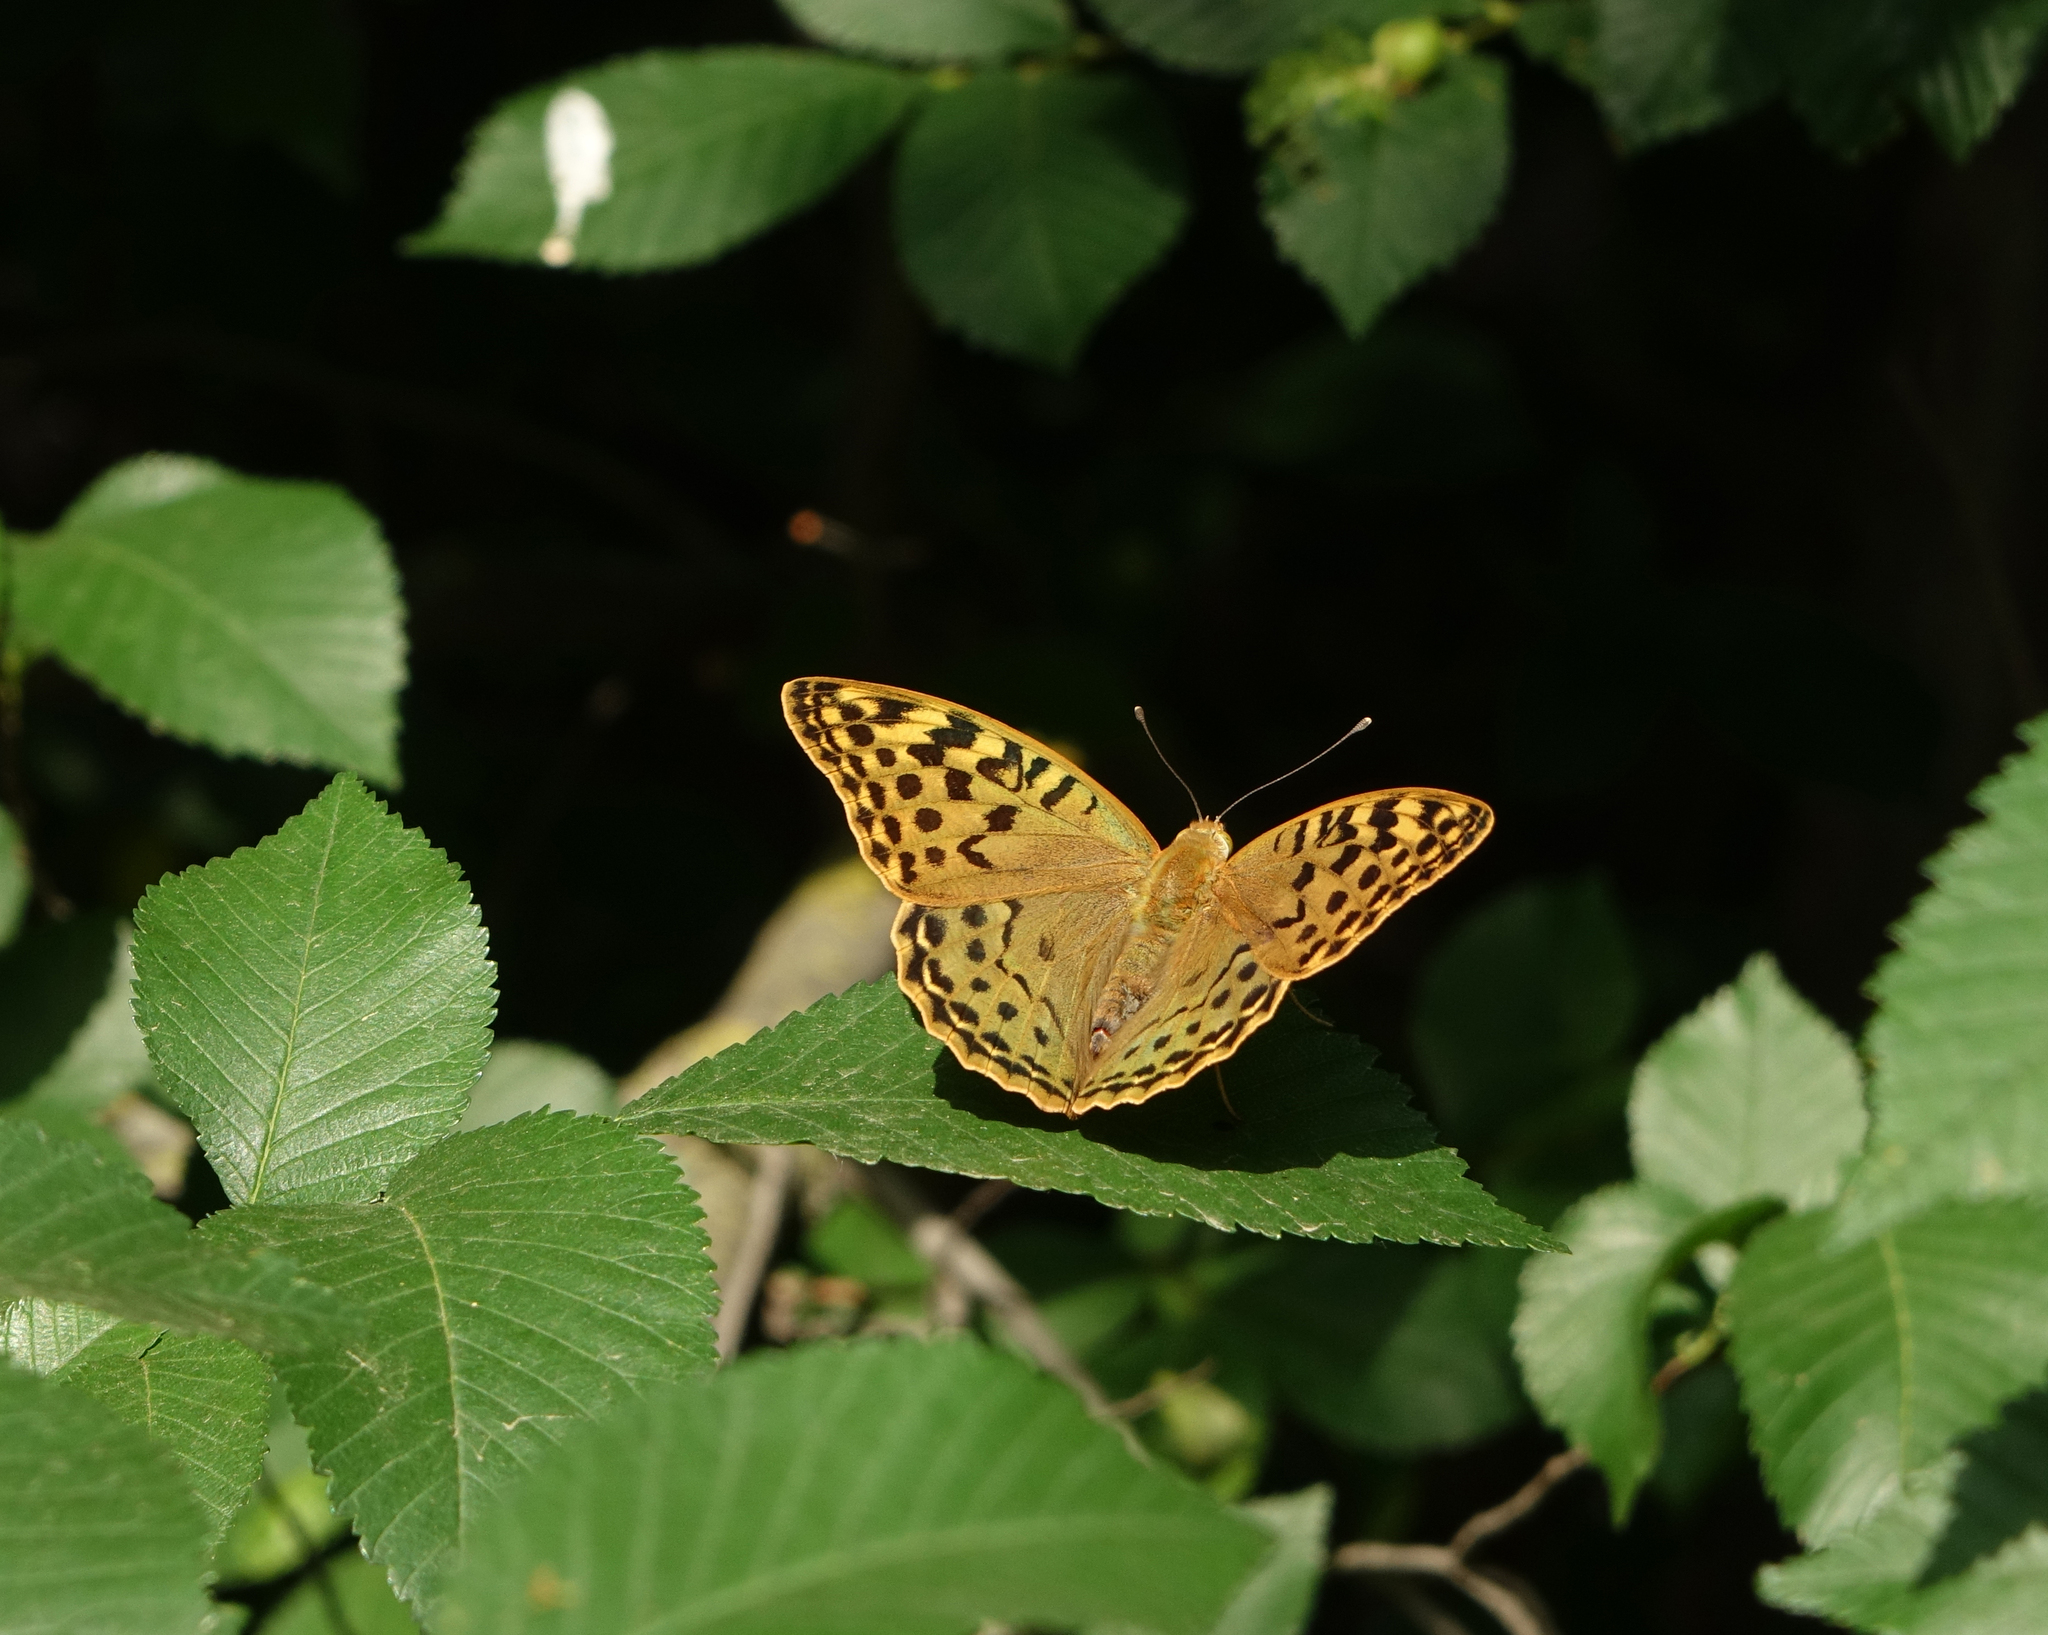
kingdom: Animalia
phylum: Arthropoda
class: Insecta
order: Lepidoptera
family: Nymphalidae
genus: Damora
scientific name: Damora pandora
